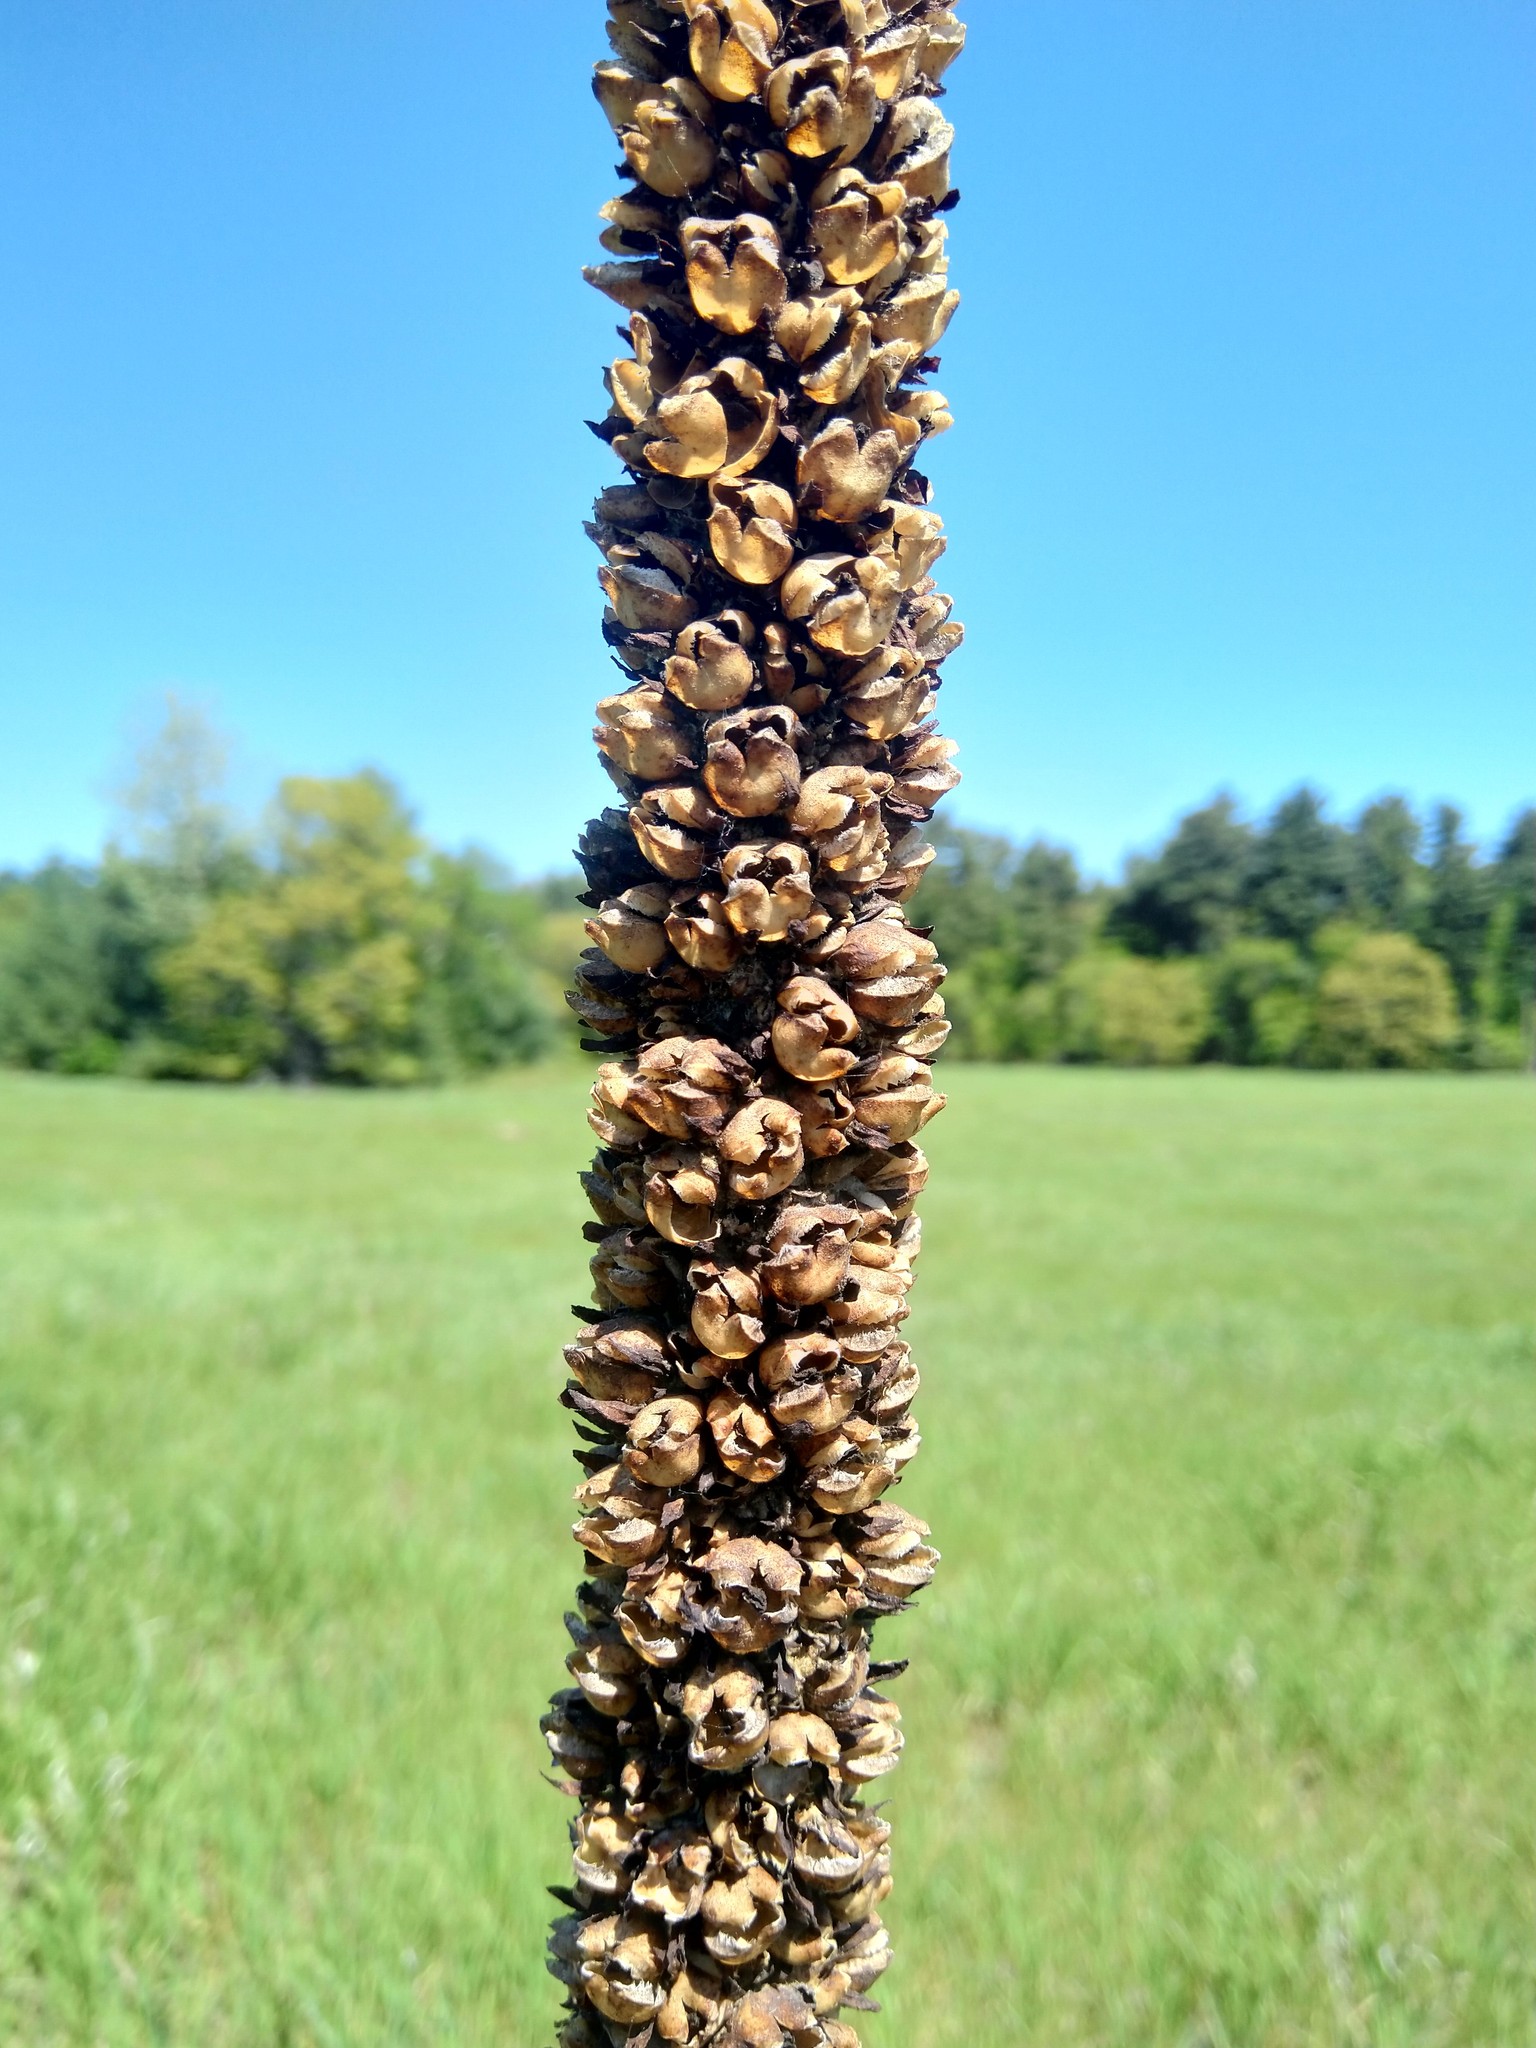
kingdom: Plantae
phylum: Tracheophyta
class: Magnoliopsida
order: Lamiales
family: Scrophulariaceae
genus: Verbascum
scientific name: Verbascum thapsus
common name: Common mullein
